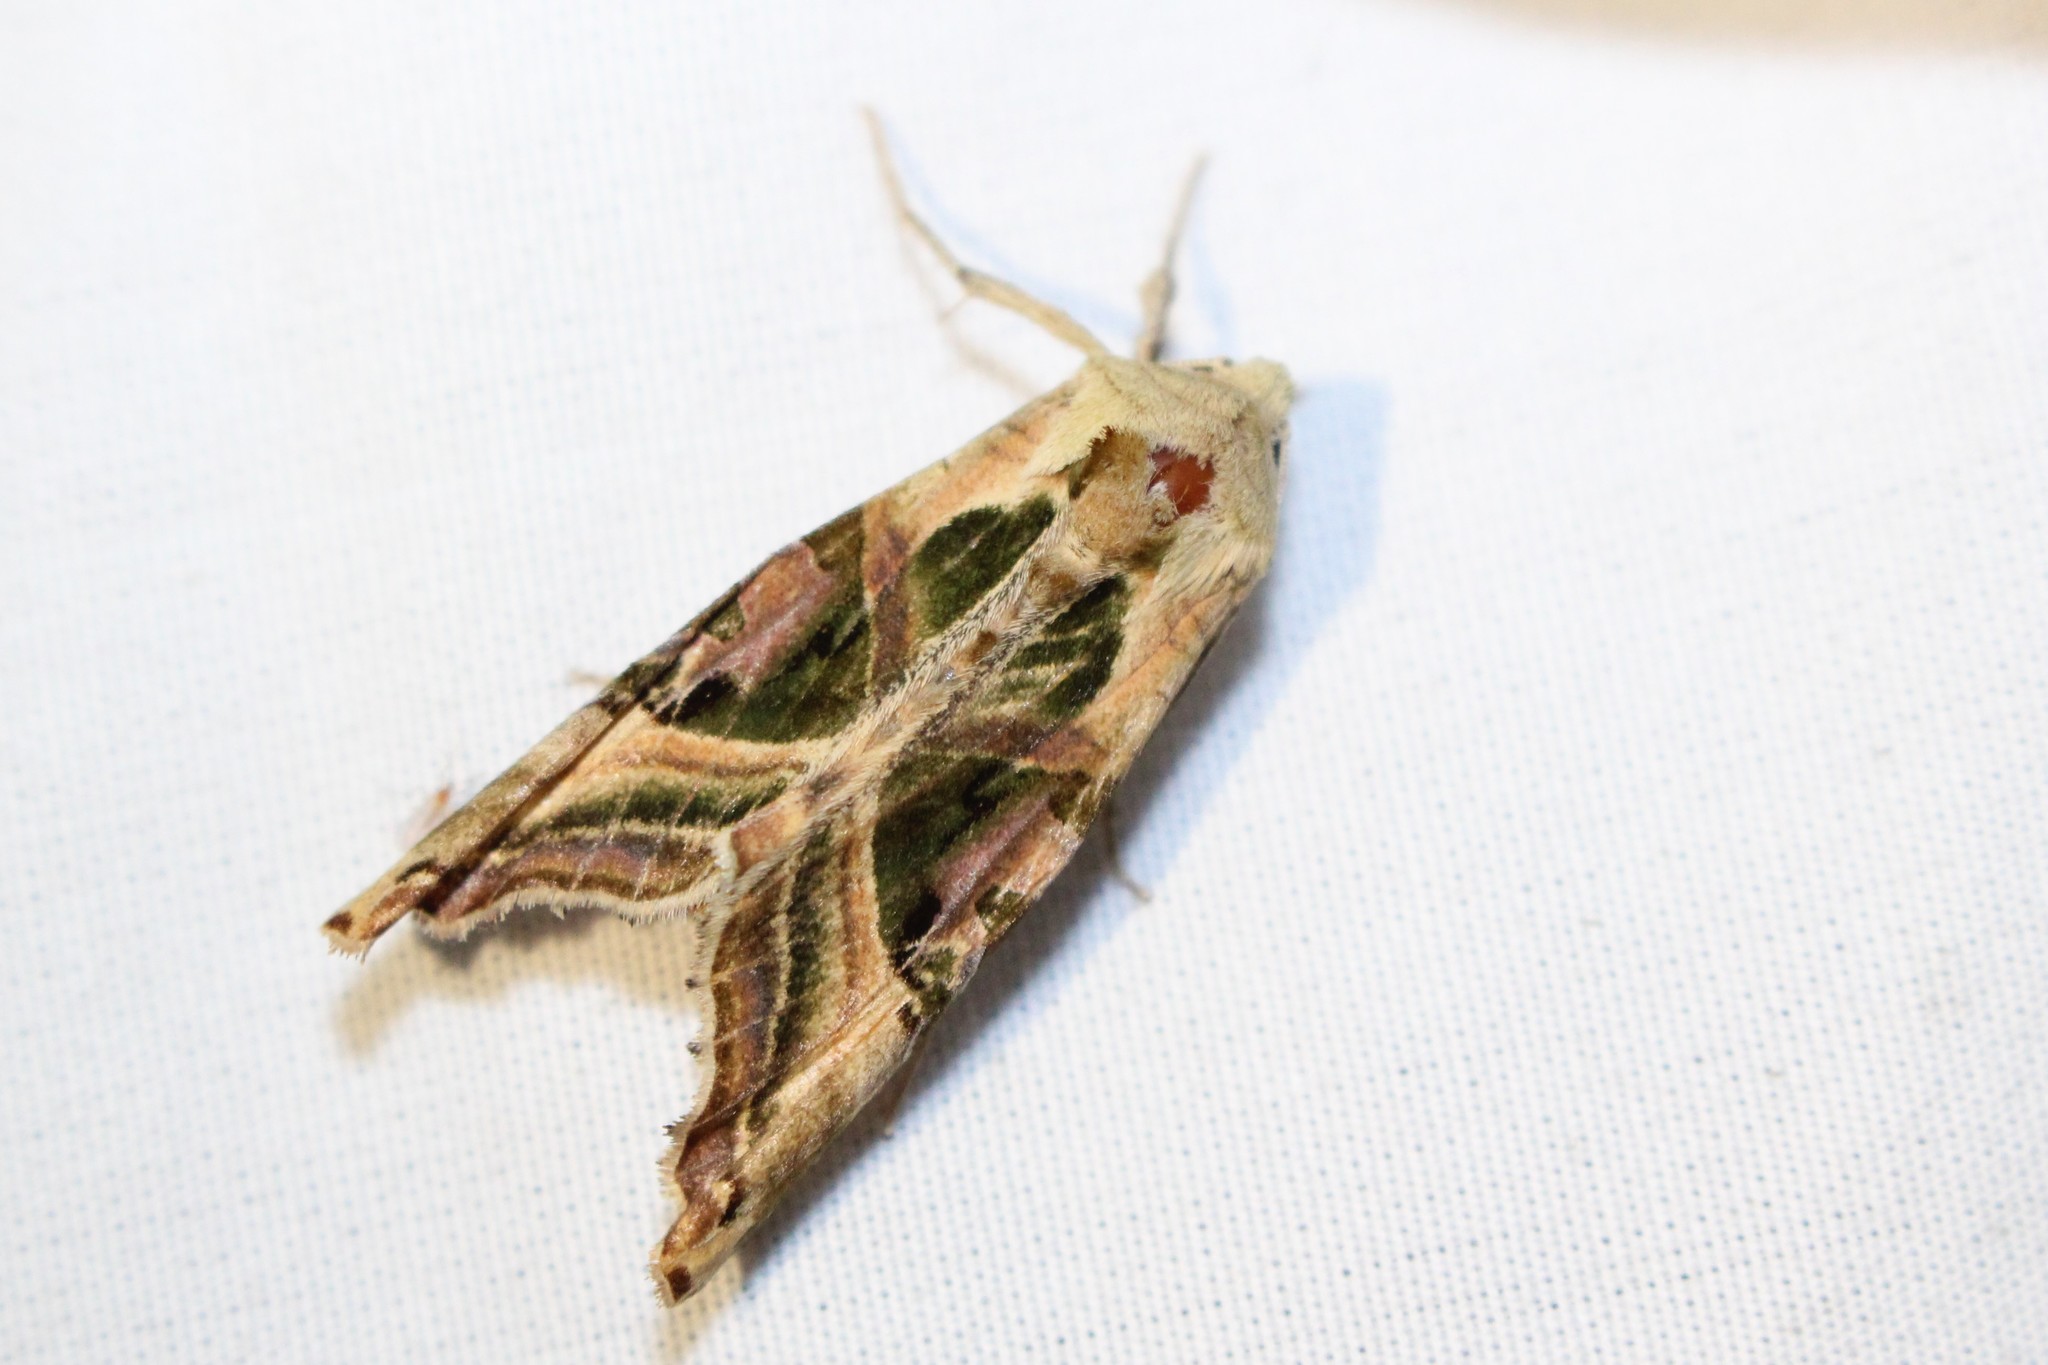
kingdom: Animalia
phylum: Arthropoda
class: Insecta
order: Lepidoptera
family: Noctuidae
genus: Phlogophora
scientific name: Phlogophora iris
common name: Olive angle shades
